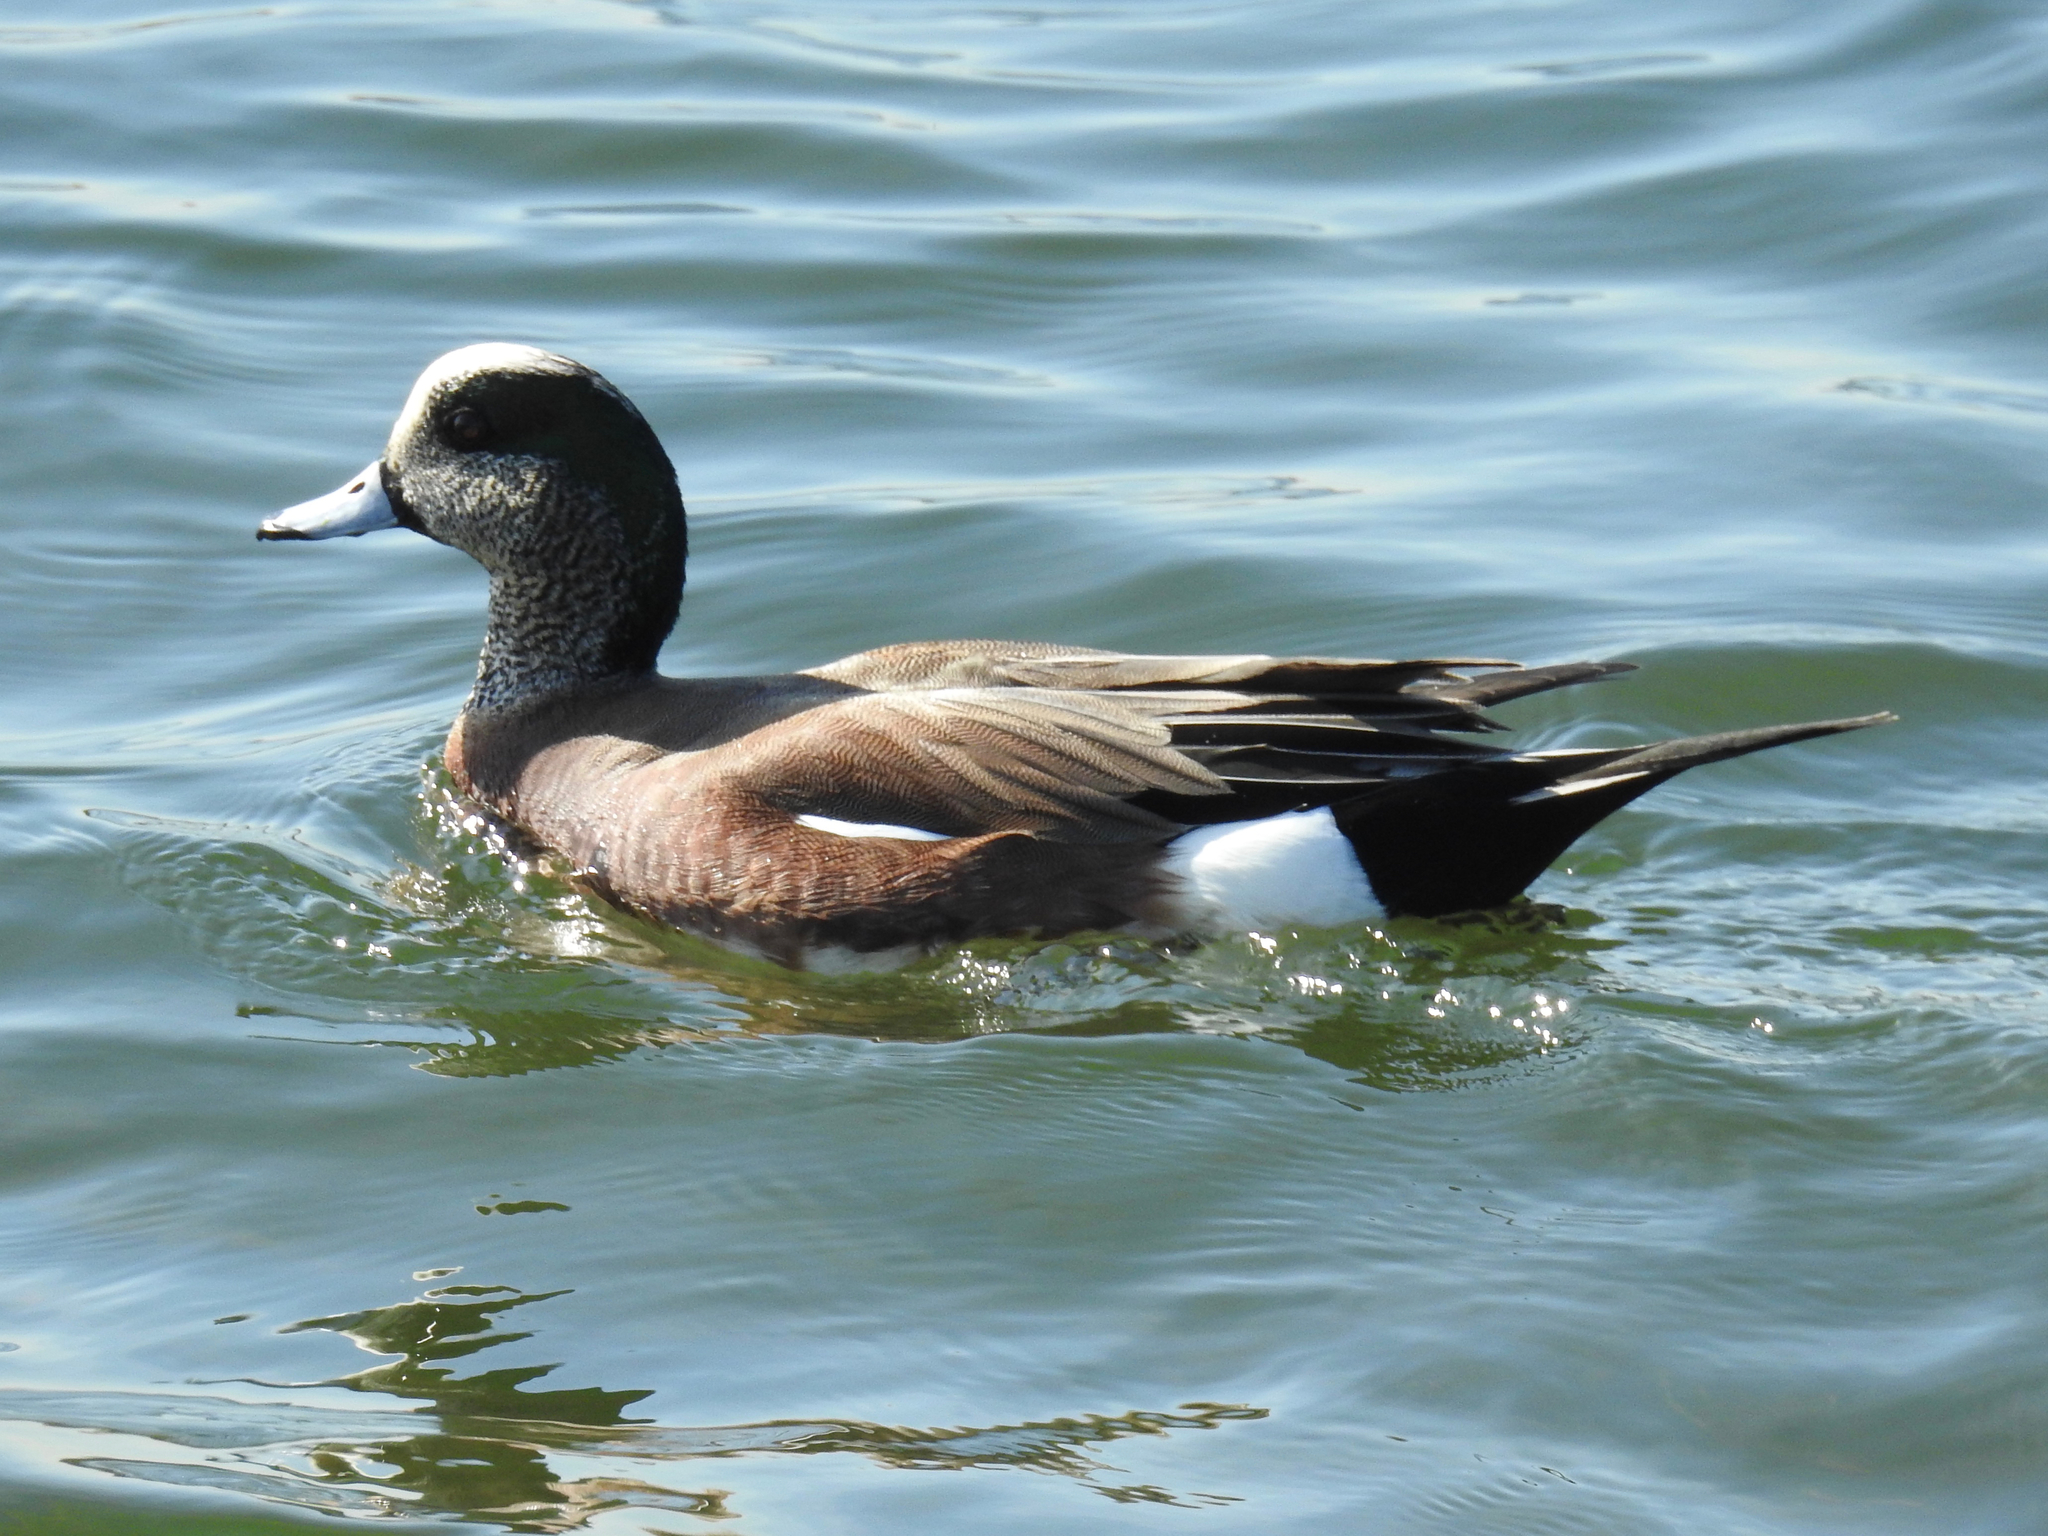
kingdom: Animalia
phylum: Chordata
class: Aves
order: Anseriformes
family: Anatidae
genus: Mareca
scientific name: Mareca americana
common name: American wigeon
